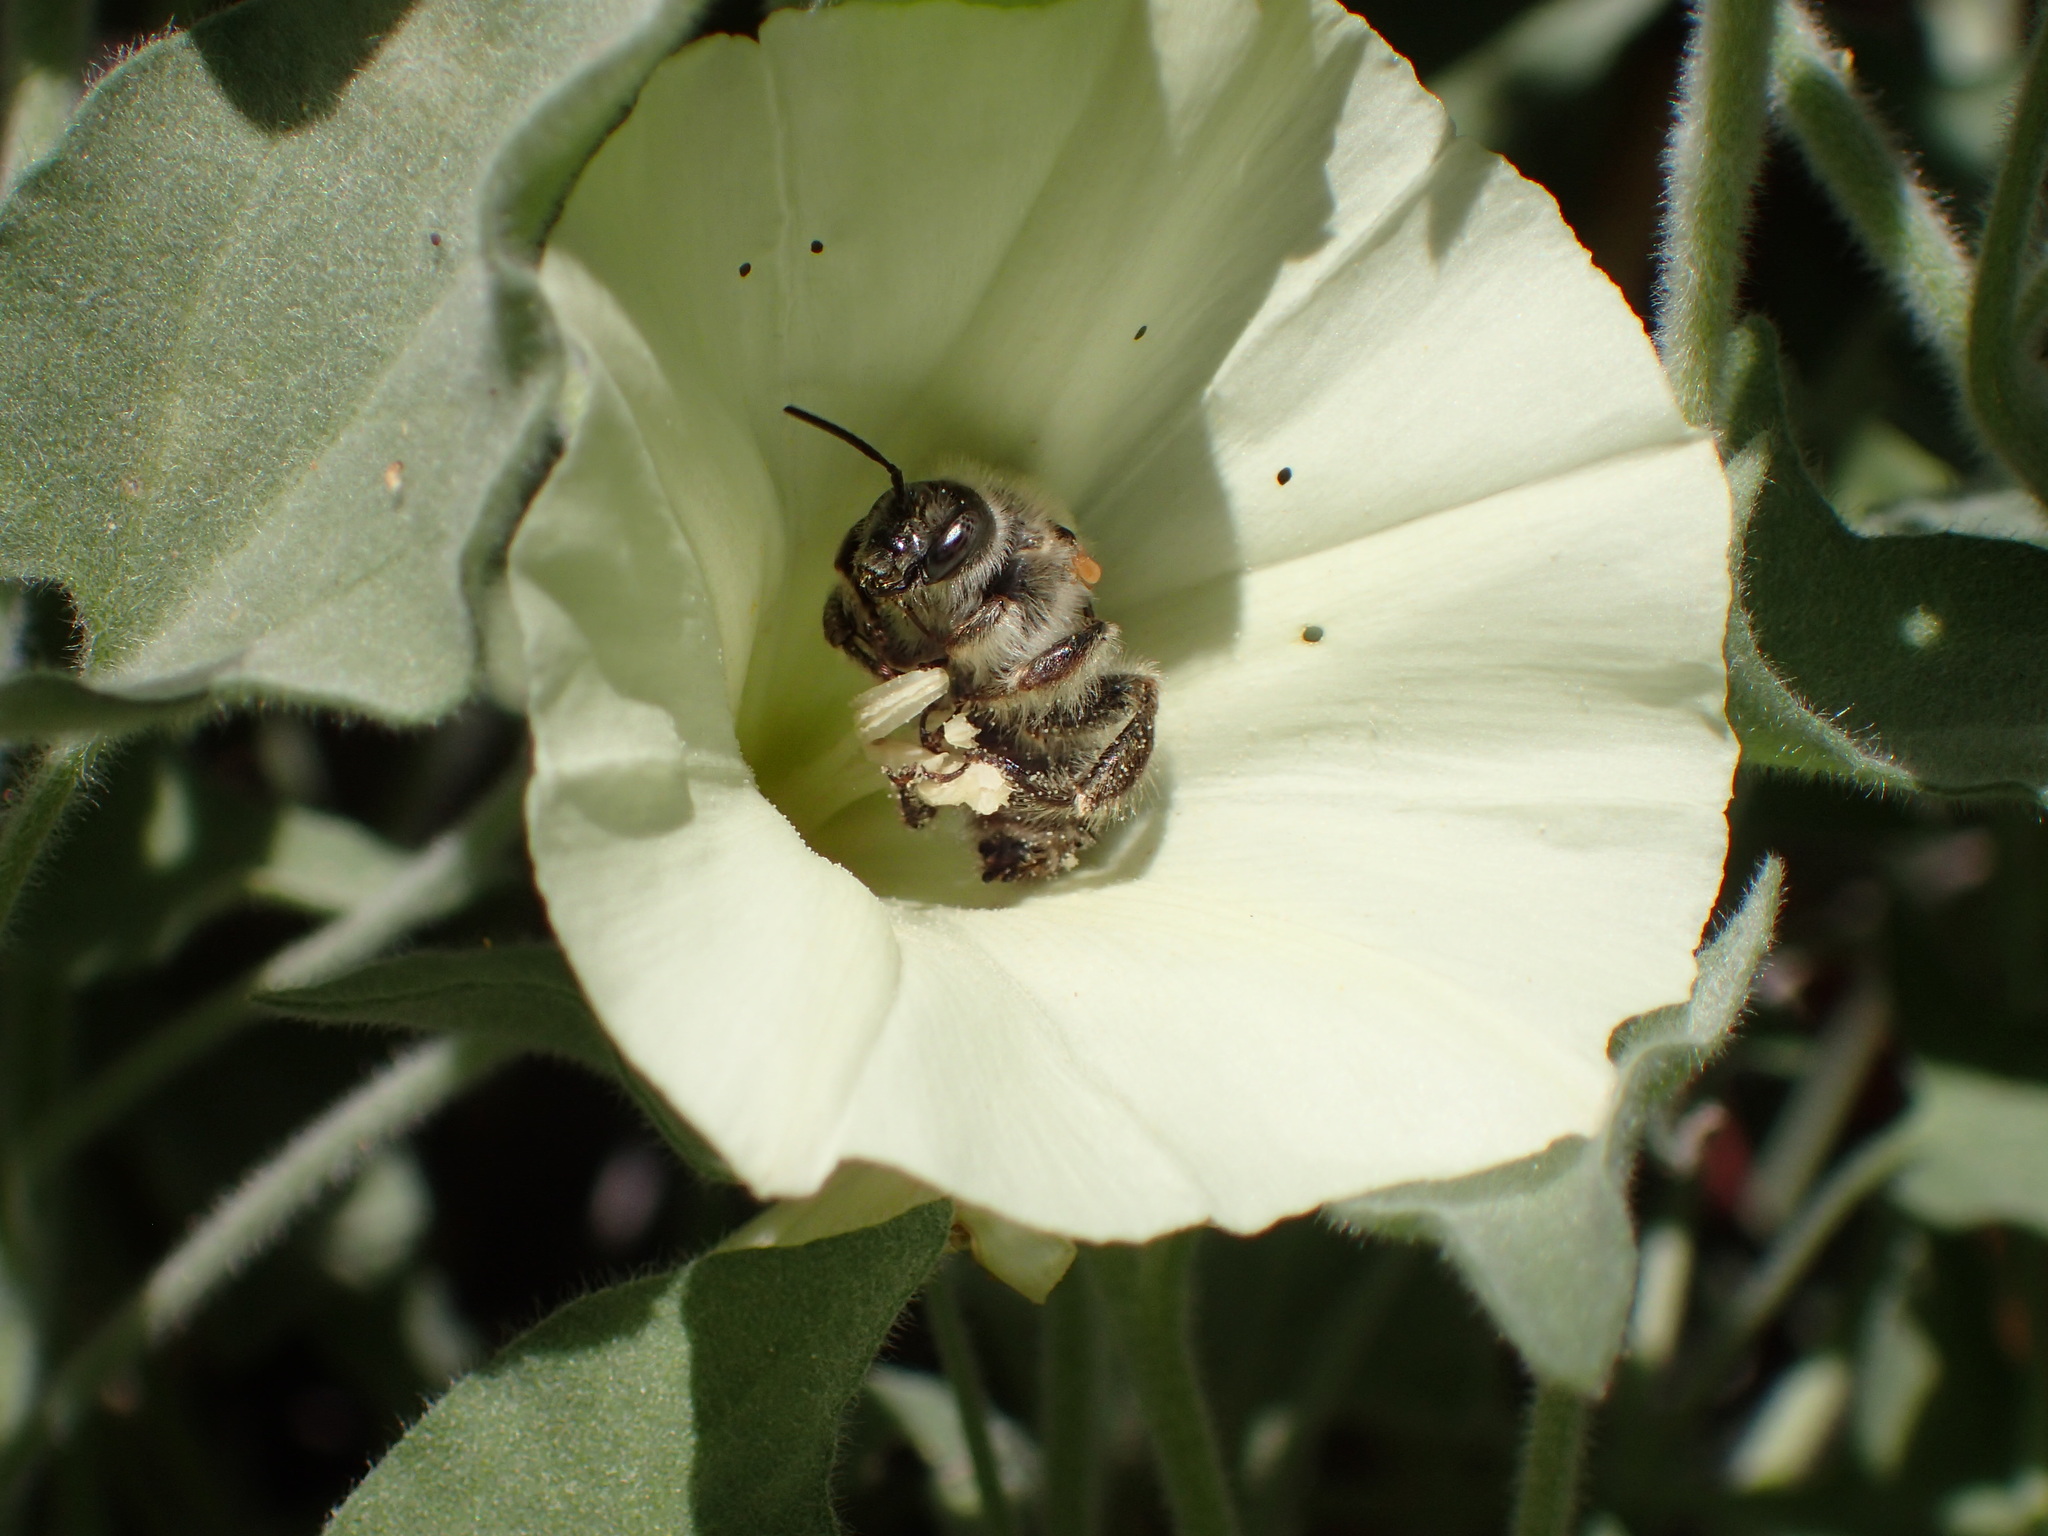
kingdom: Animalia
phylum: Arthropoda
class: Insecta
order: Hymenoptera
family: Apidae
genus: Diadasia
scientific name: Diadasia bituberculata
